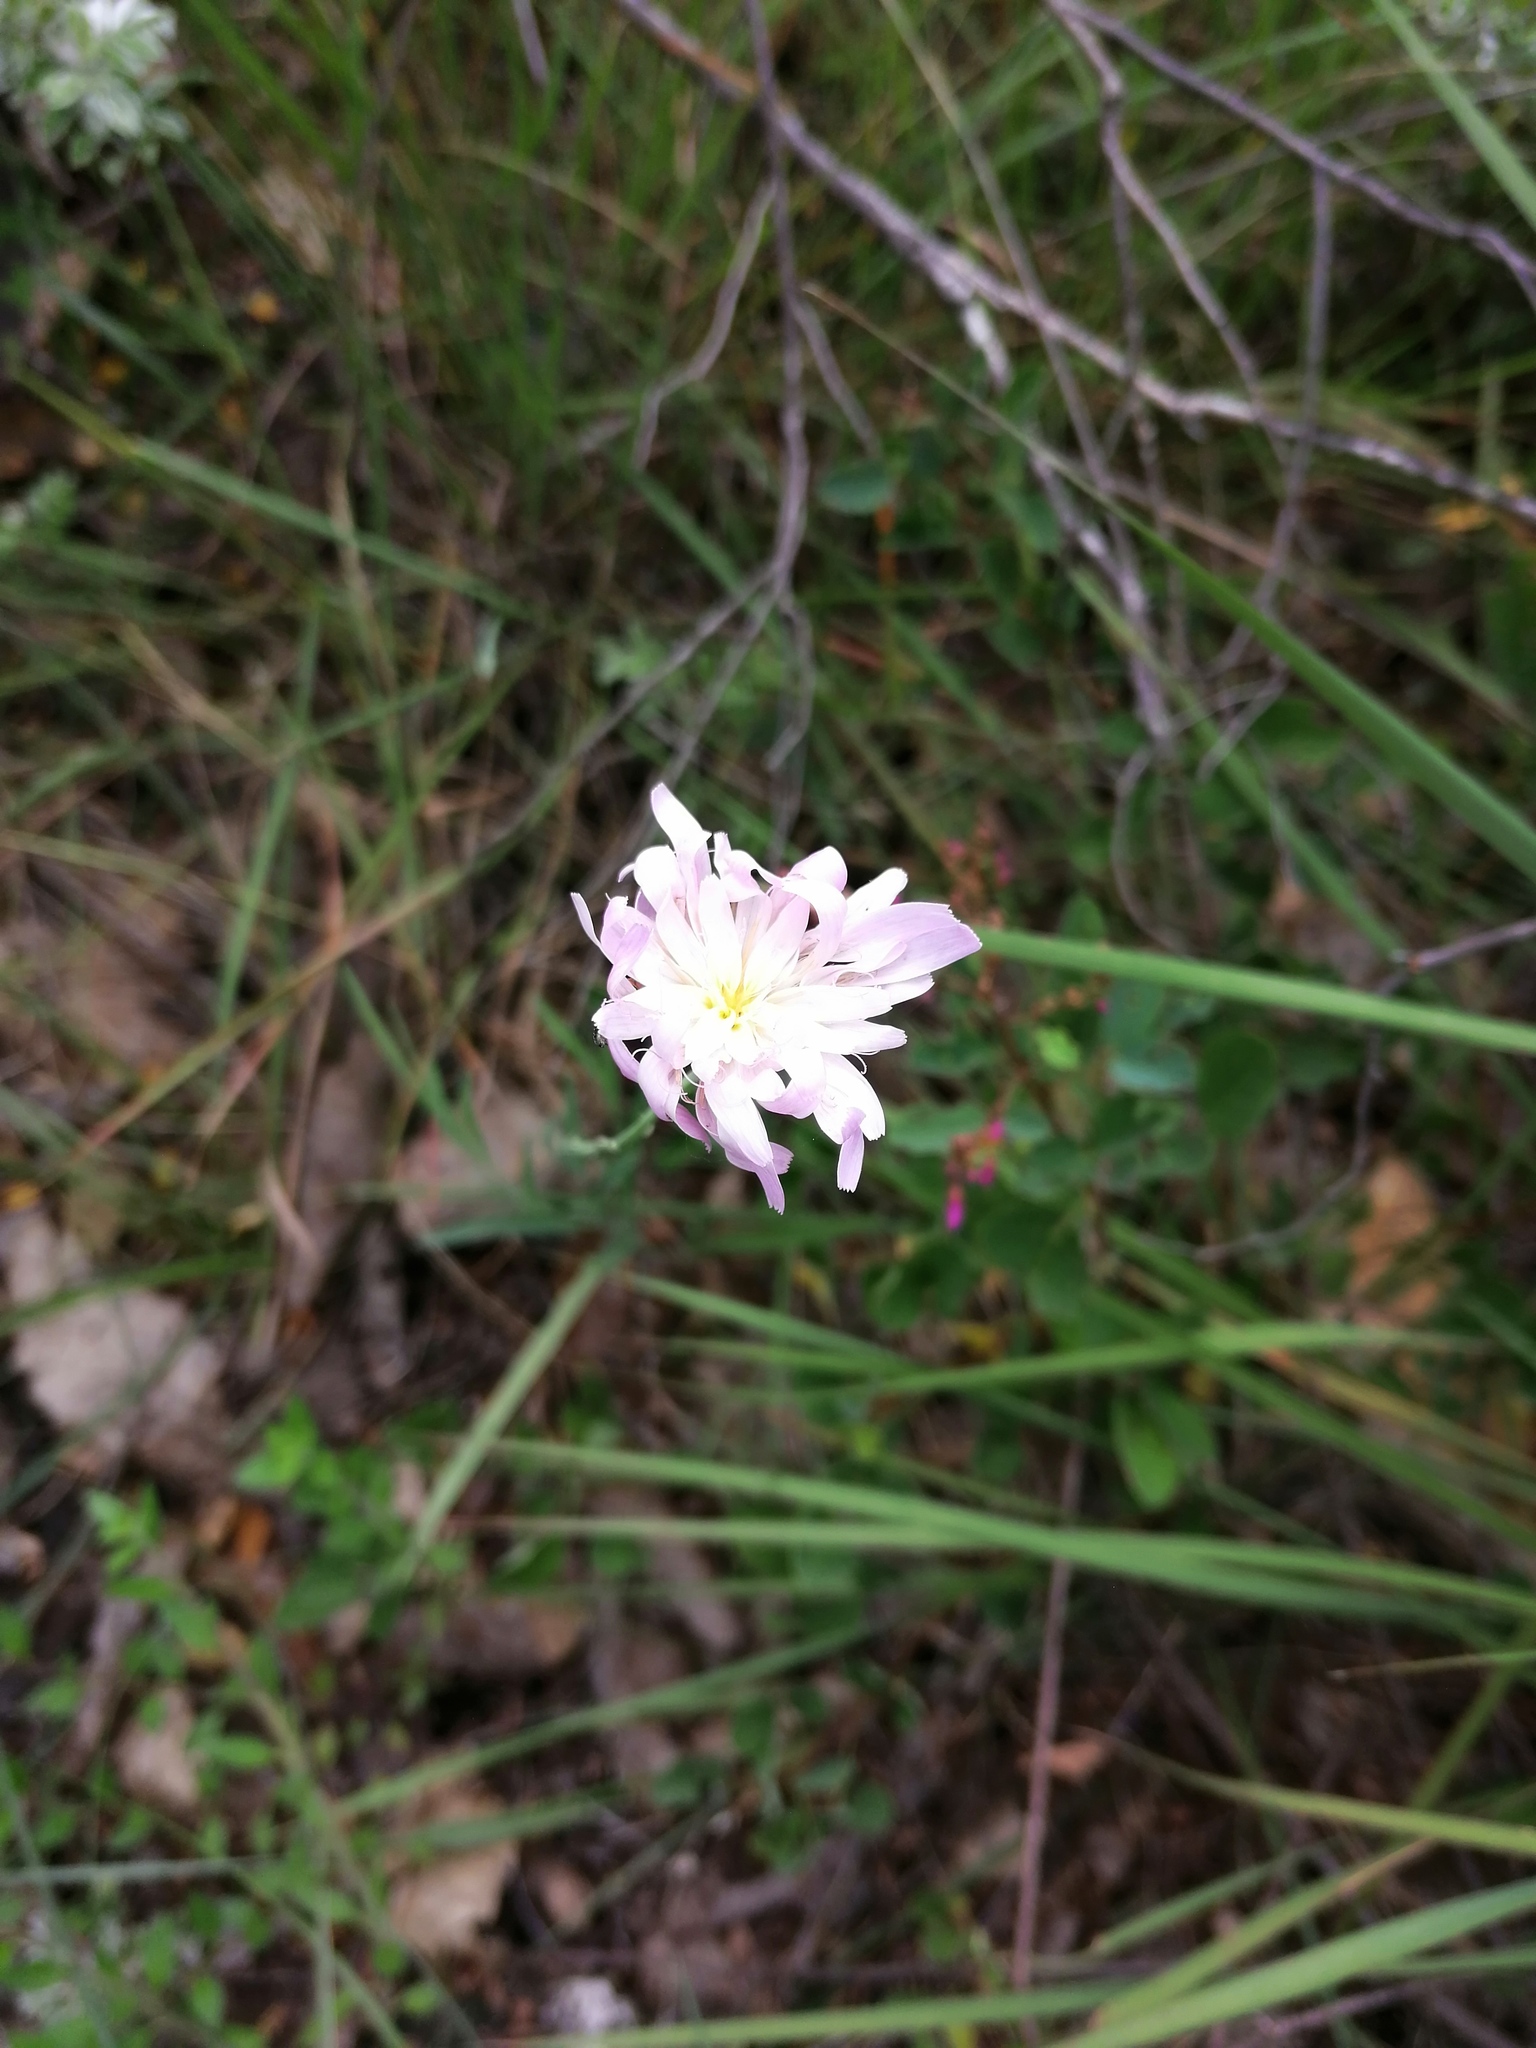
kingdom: Plantae
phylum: Tracheophyta
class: Magnoliopsida
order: Asterales
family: Asteraceae
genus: Pinaropappus
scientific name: Pinaropappus roseus
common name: Rock-lettuce
